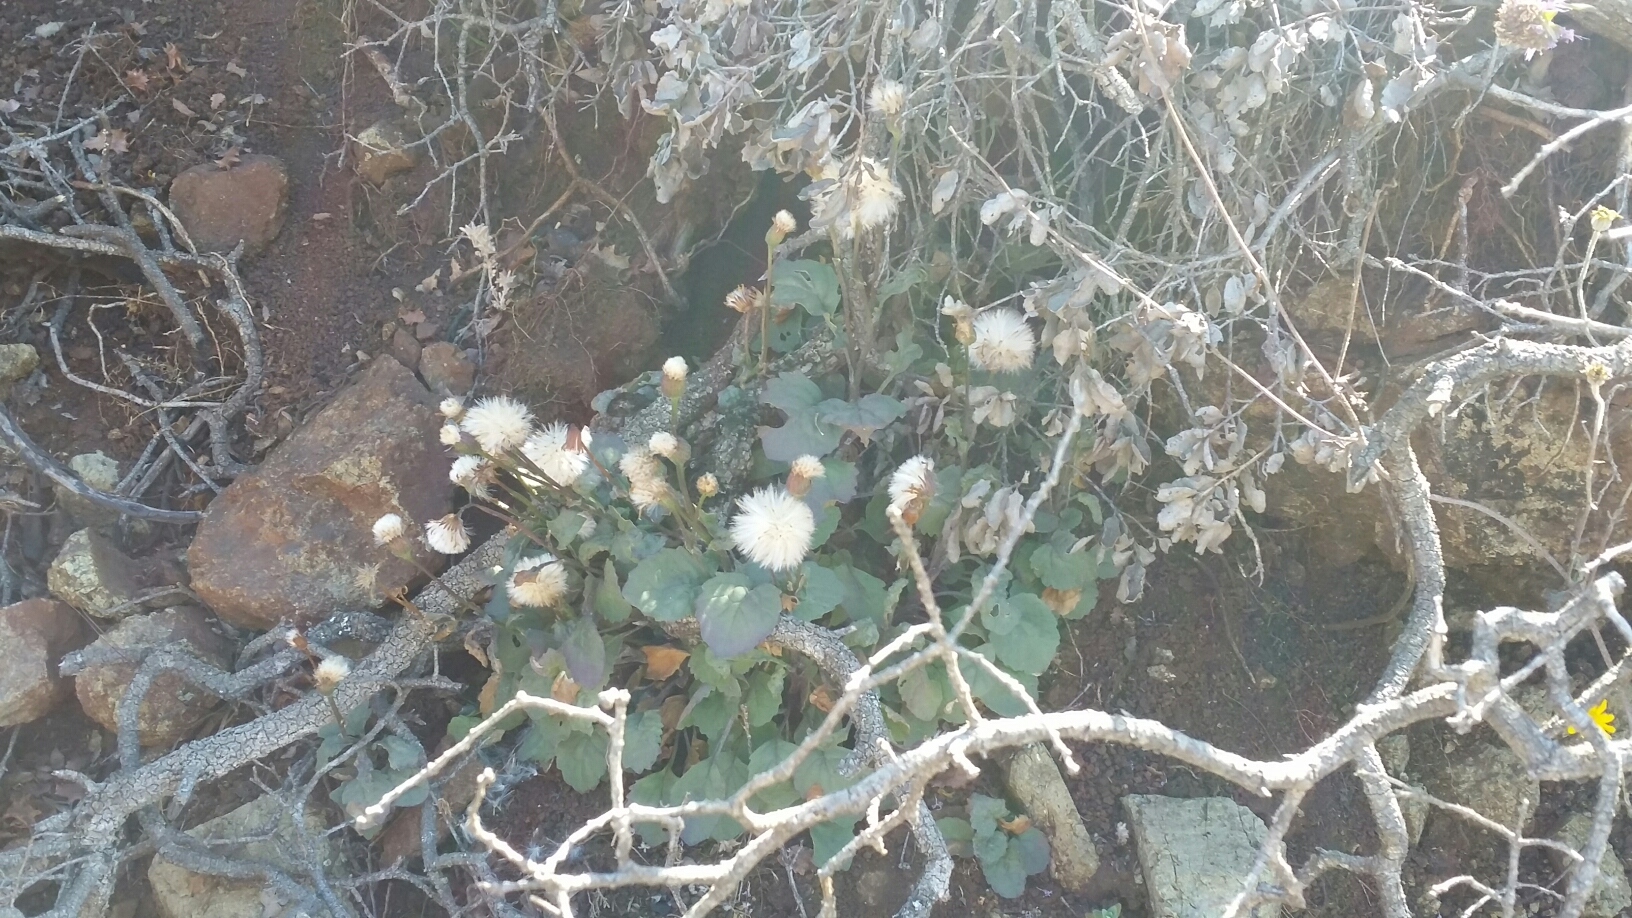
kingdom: Plantae
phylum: Tracheophyta
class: Magnoliopsida
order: Asterales
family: Asteraceae
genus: Arnica
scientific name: Arnica discoidea
